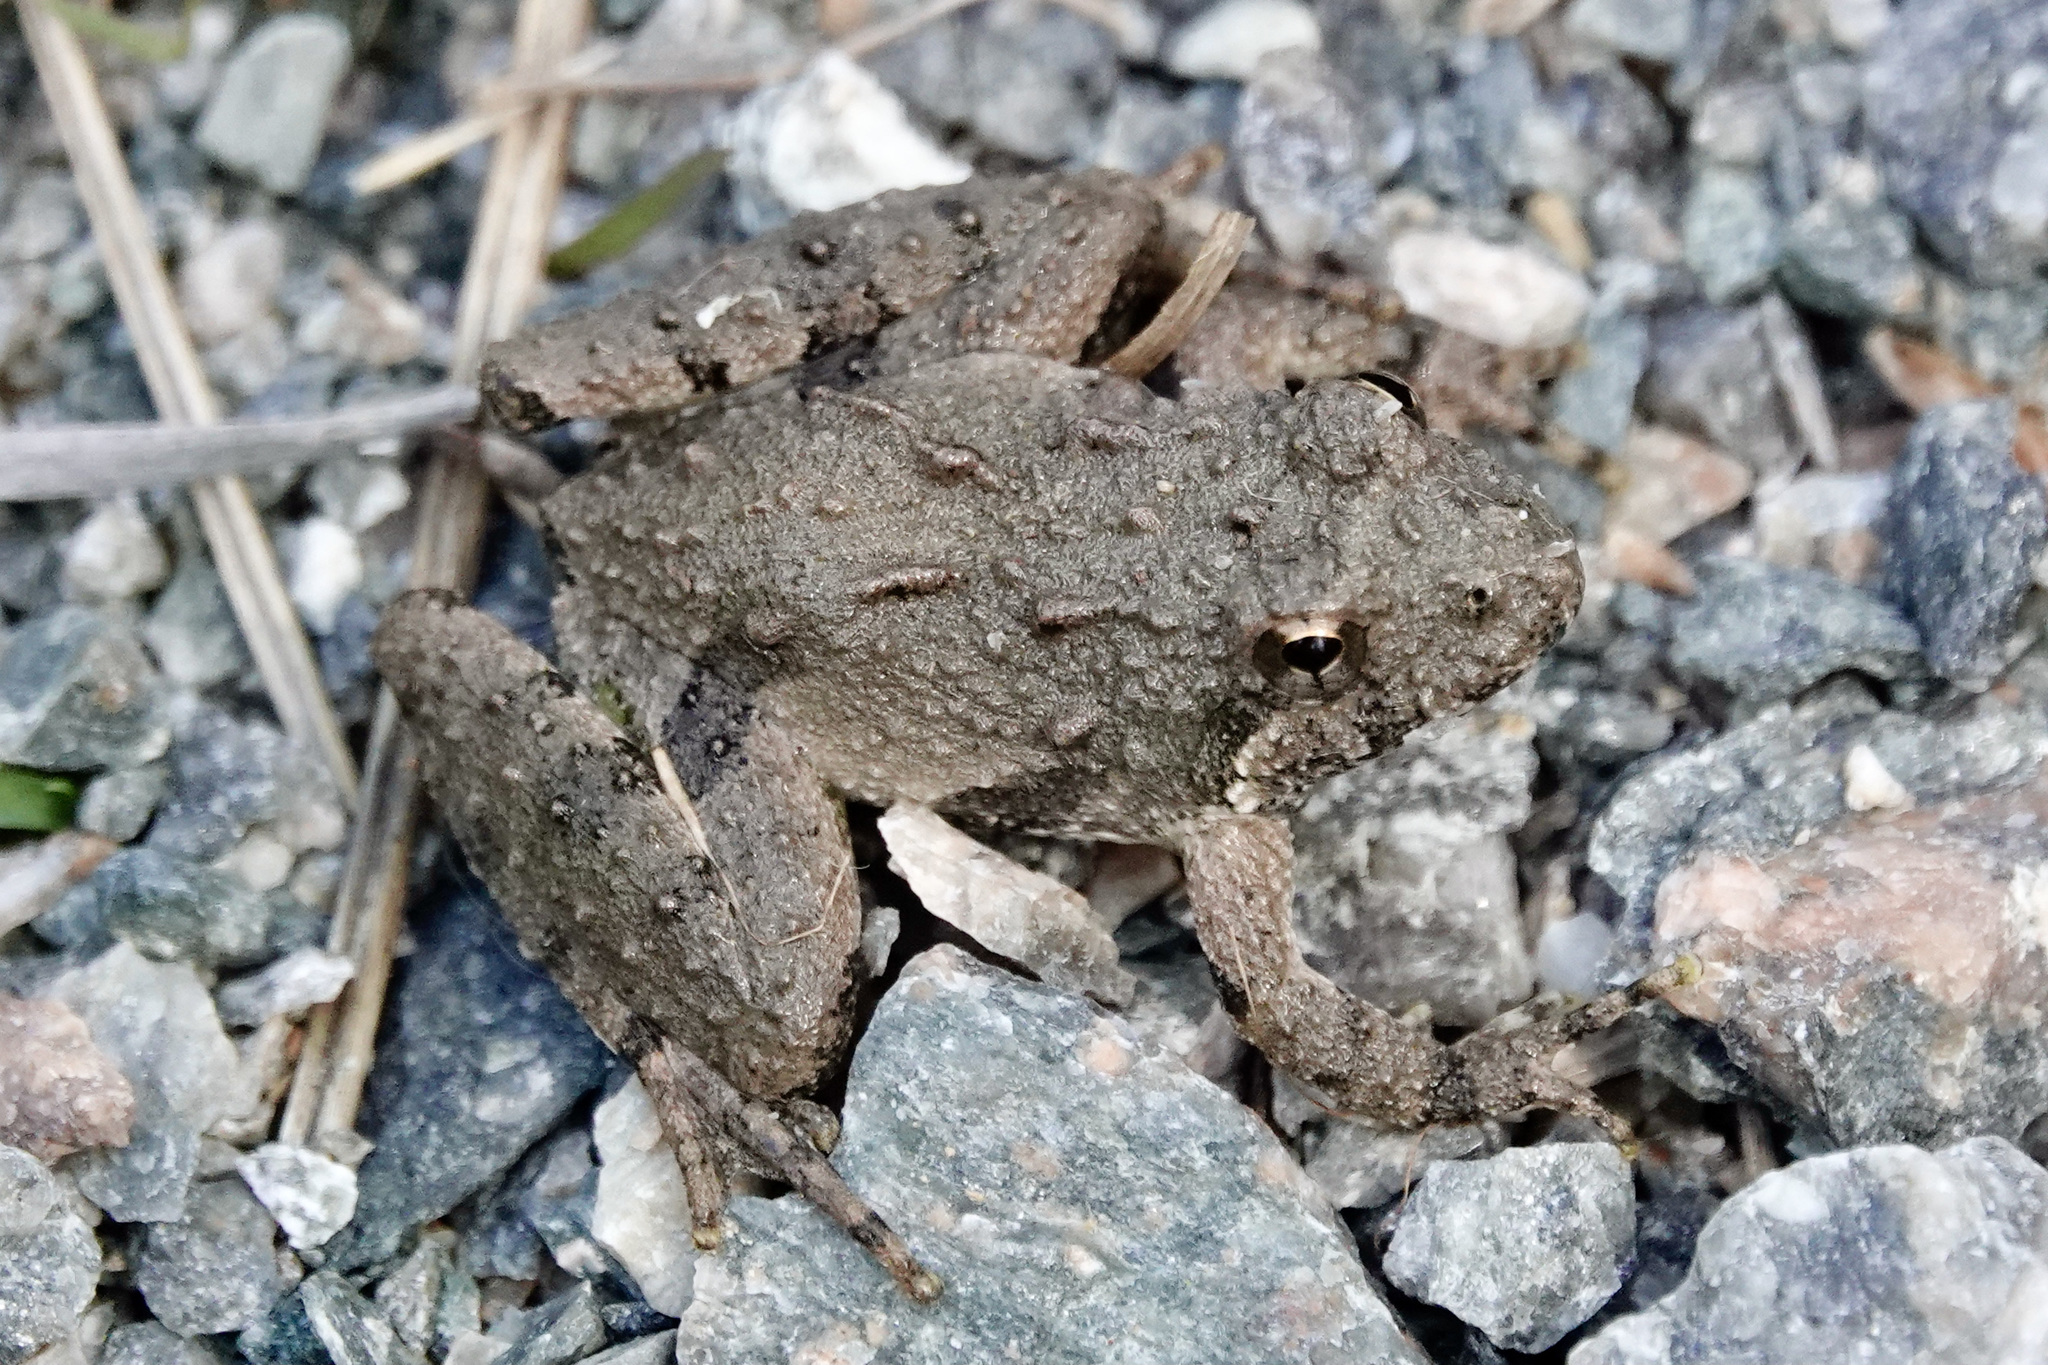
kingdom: Animalia
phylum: Chordata
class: Amphibia
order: Anura
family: Hylidae
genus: Acris
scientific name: Acris crepitans
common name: Northern cricket frog
